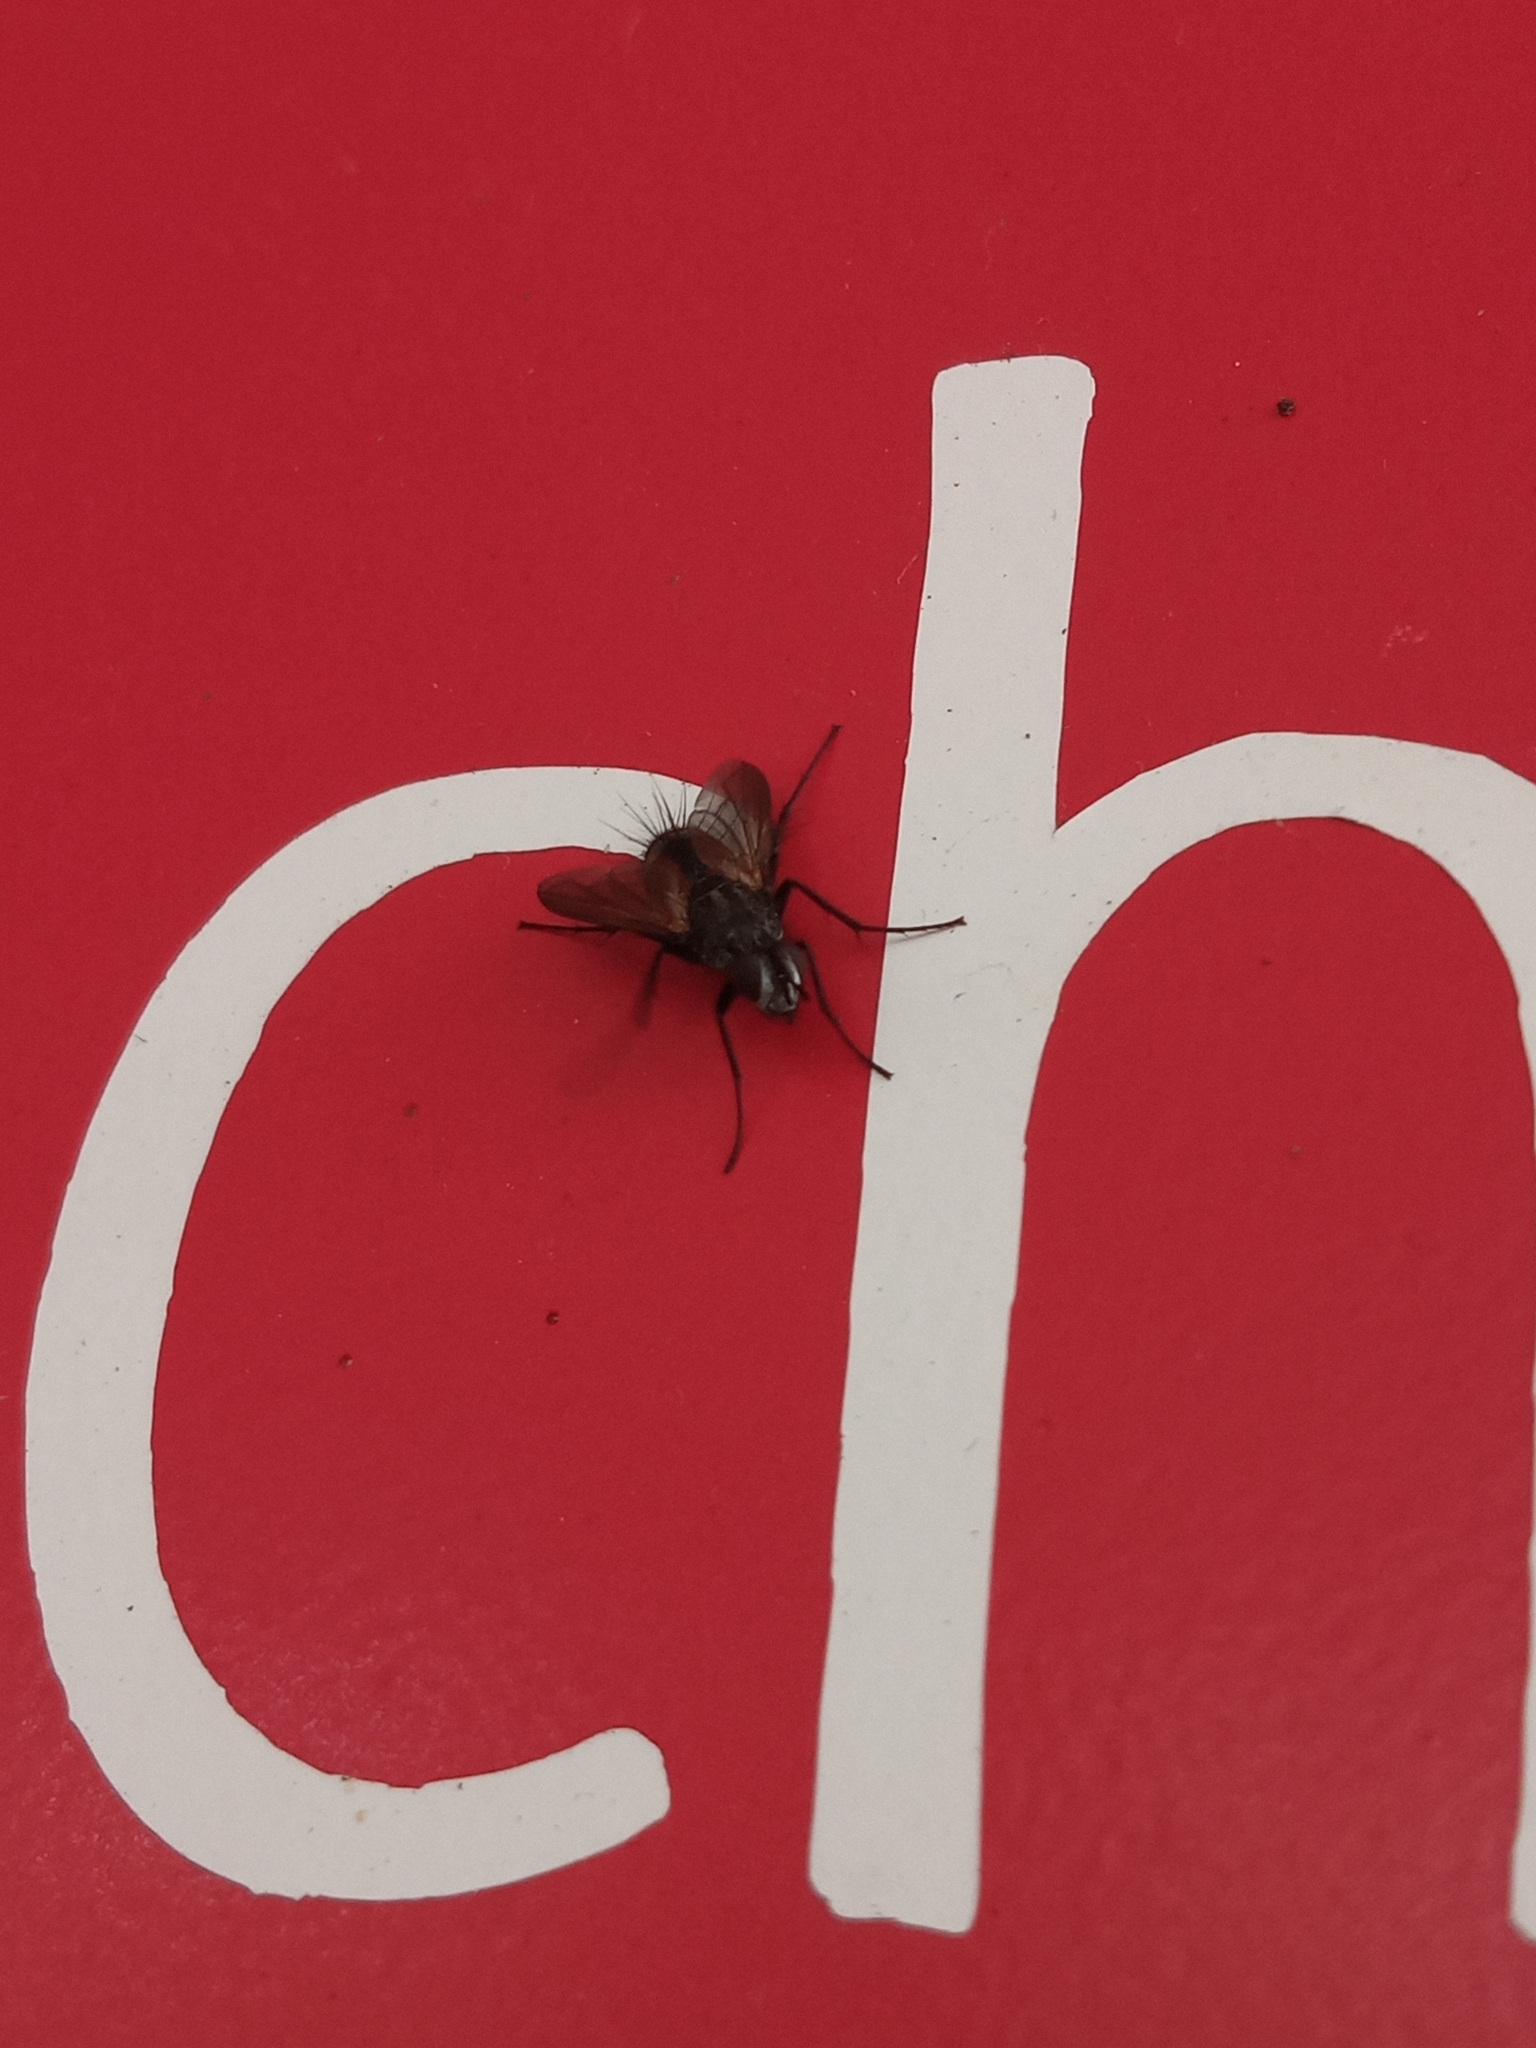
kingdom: Animalia
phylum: Arthropoda
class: Insecta
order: Diptera
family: Tachinidae
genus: Eriothrix
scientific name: Eriothrix rufomaculatus
